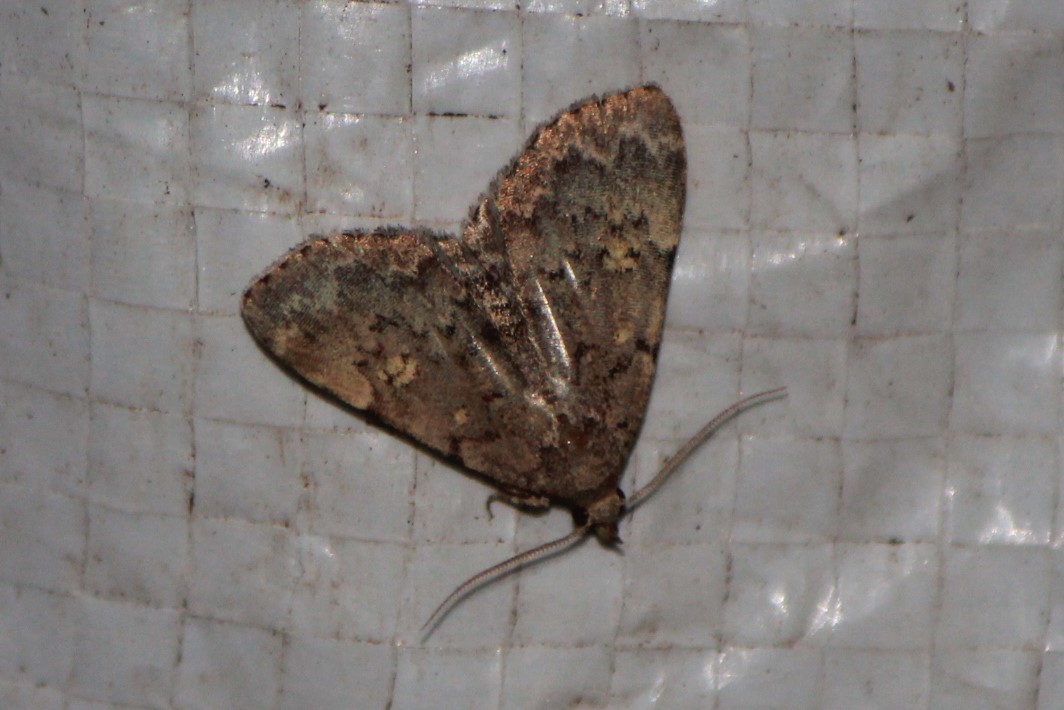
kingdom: Animalia
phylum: Arthropoda
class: Insecta
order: Lepidoptera
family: Erebidae
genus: Idia
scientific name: Idia aemula
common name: Common idia moth
